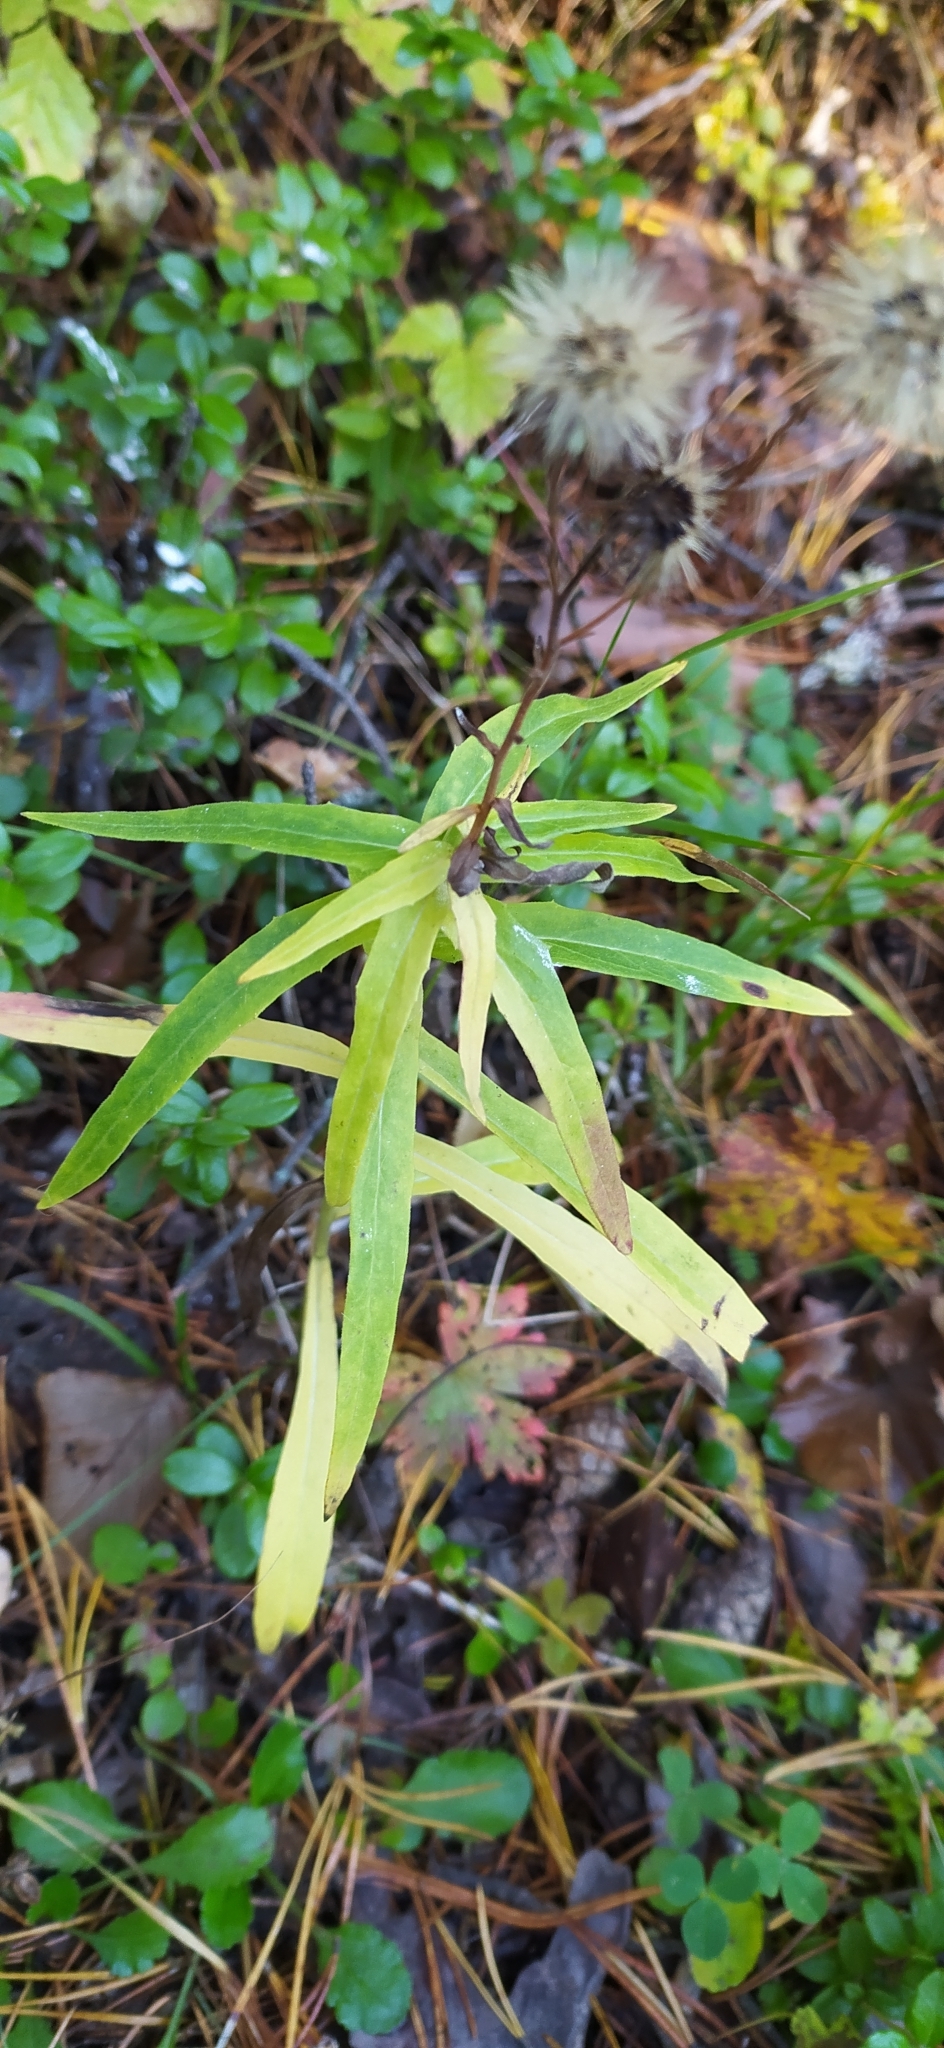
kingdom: Plantae
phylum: Tracheophyta
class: Magnoliopsida
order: Asterales
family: Asteraceae
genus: Hieracium
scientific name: Hieracium umbellatum
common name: Northern hawkweed
